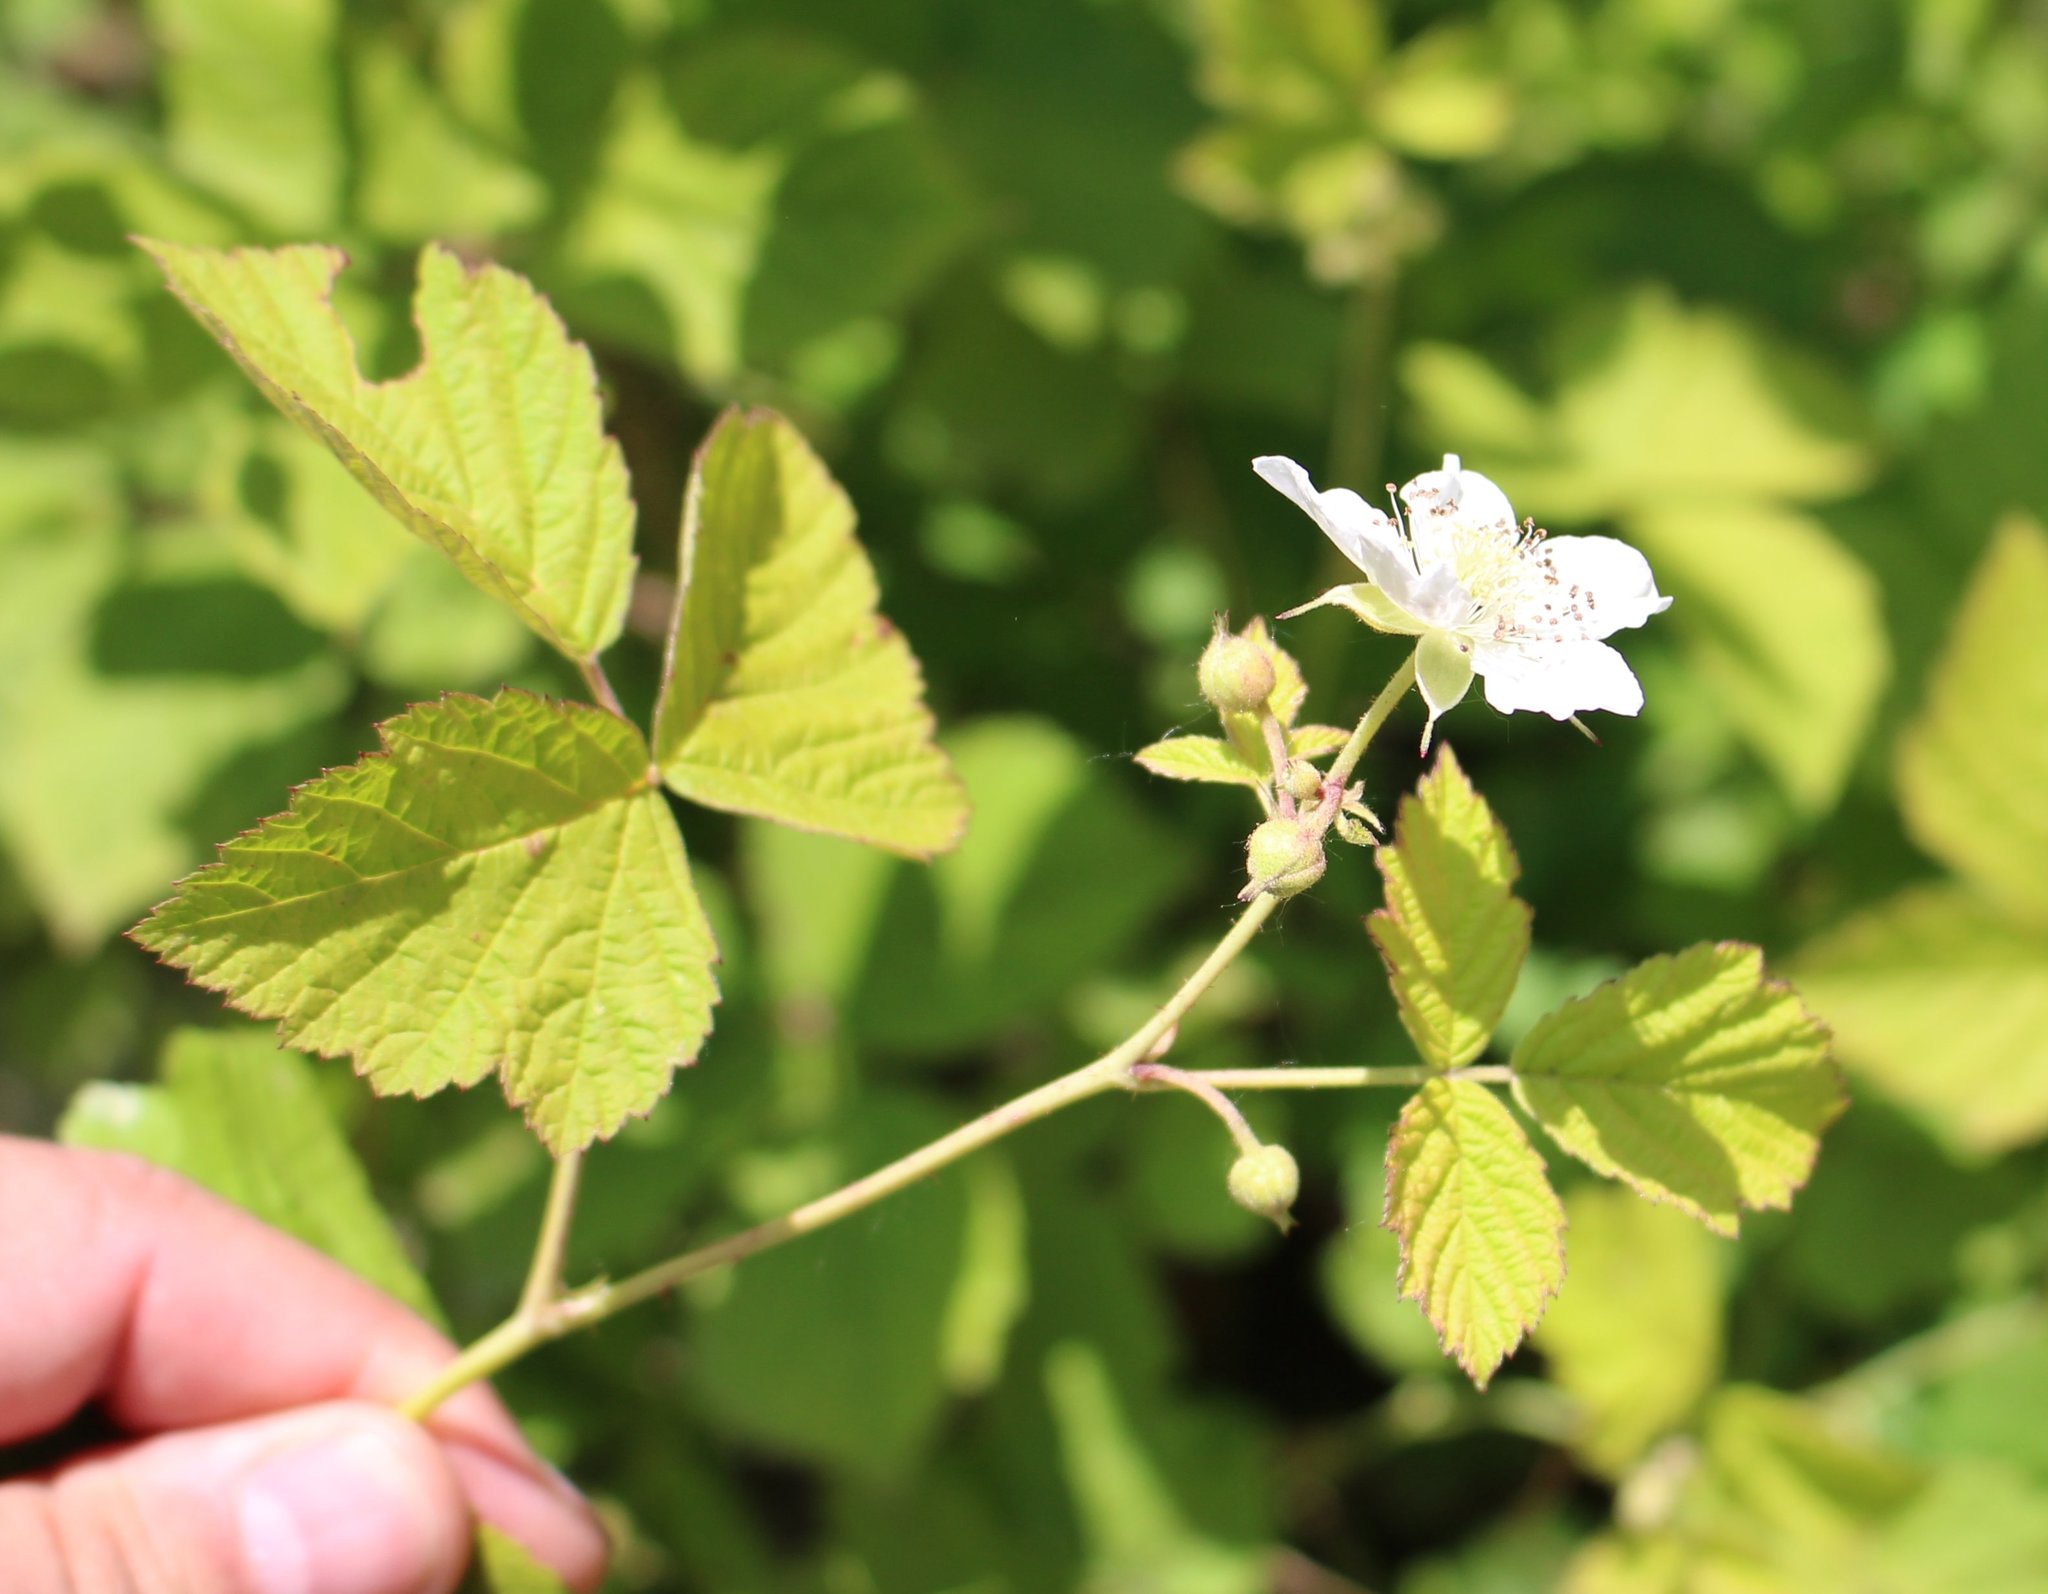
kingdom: Plantae
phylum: Tracheophyta
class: Magnoliopsida
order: Rosales
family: Rosaceae
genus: Rubus
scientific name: Rubus caesius
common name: Dewberry
